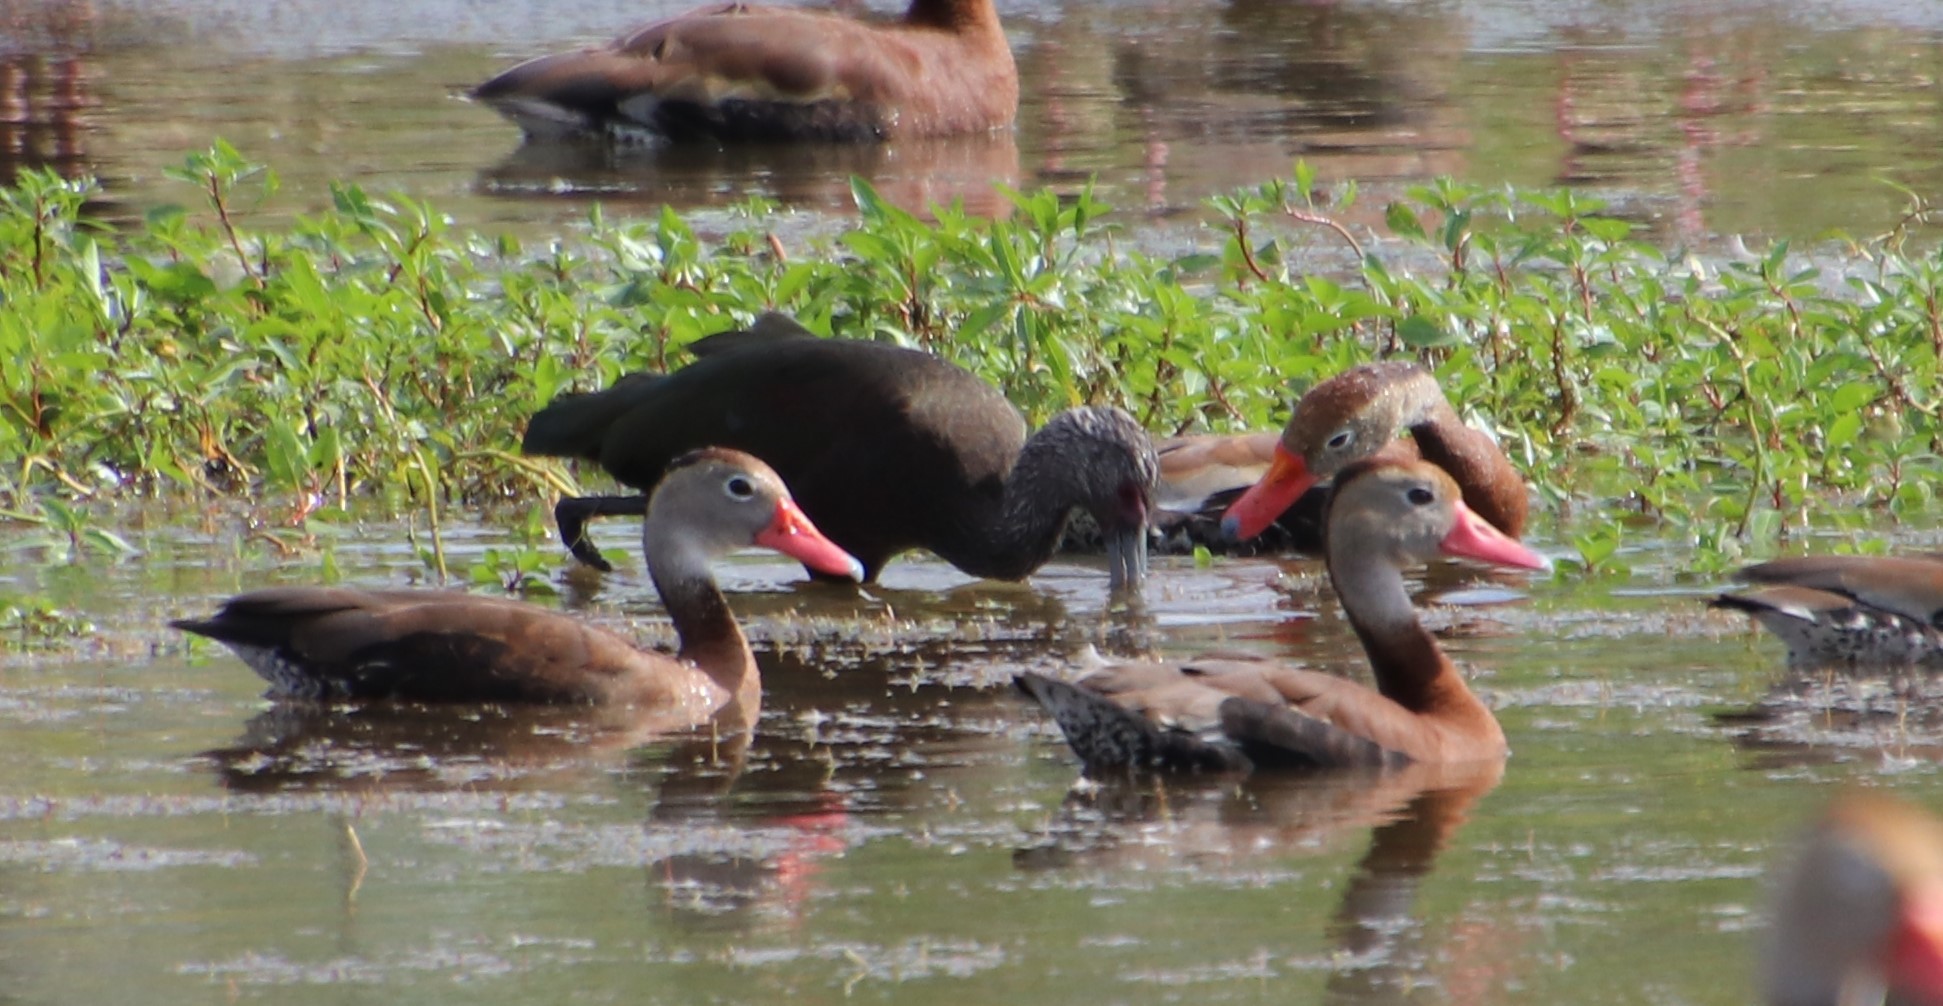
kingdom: Animalia
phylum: Chordata
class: Aves
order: Pelecaniformes
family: Threskiornithidae
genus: Plegadis
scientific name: Plegadis chihi
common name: White-faced ibis
